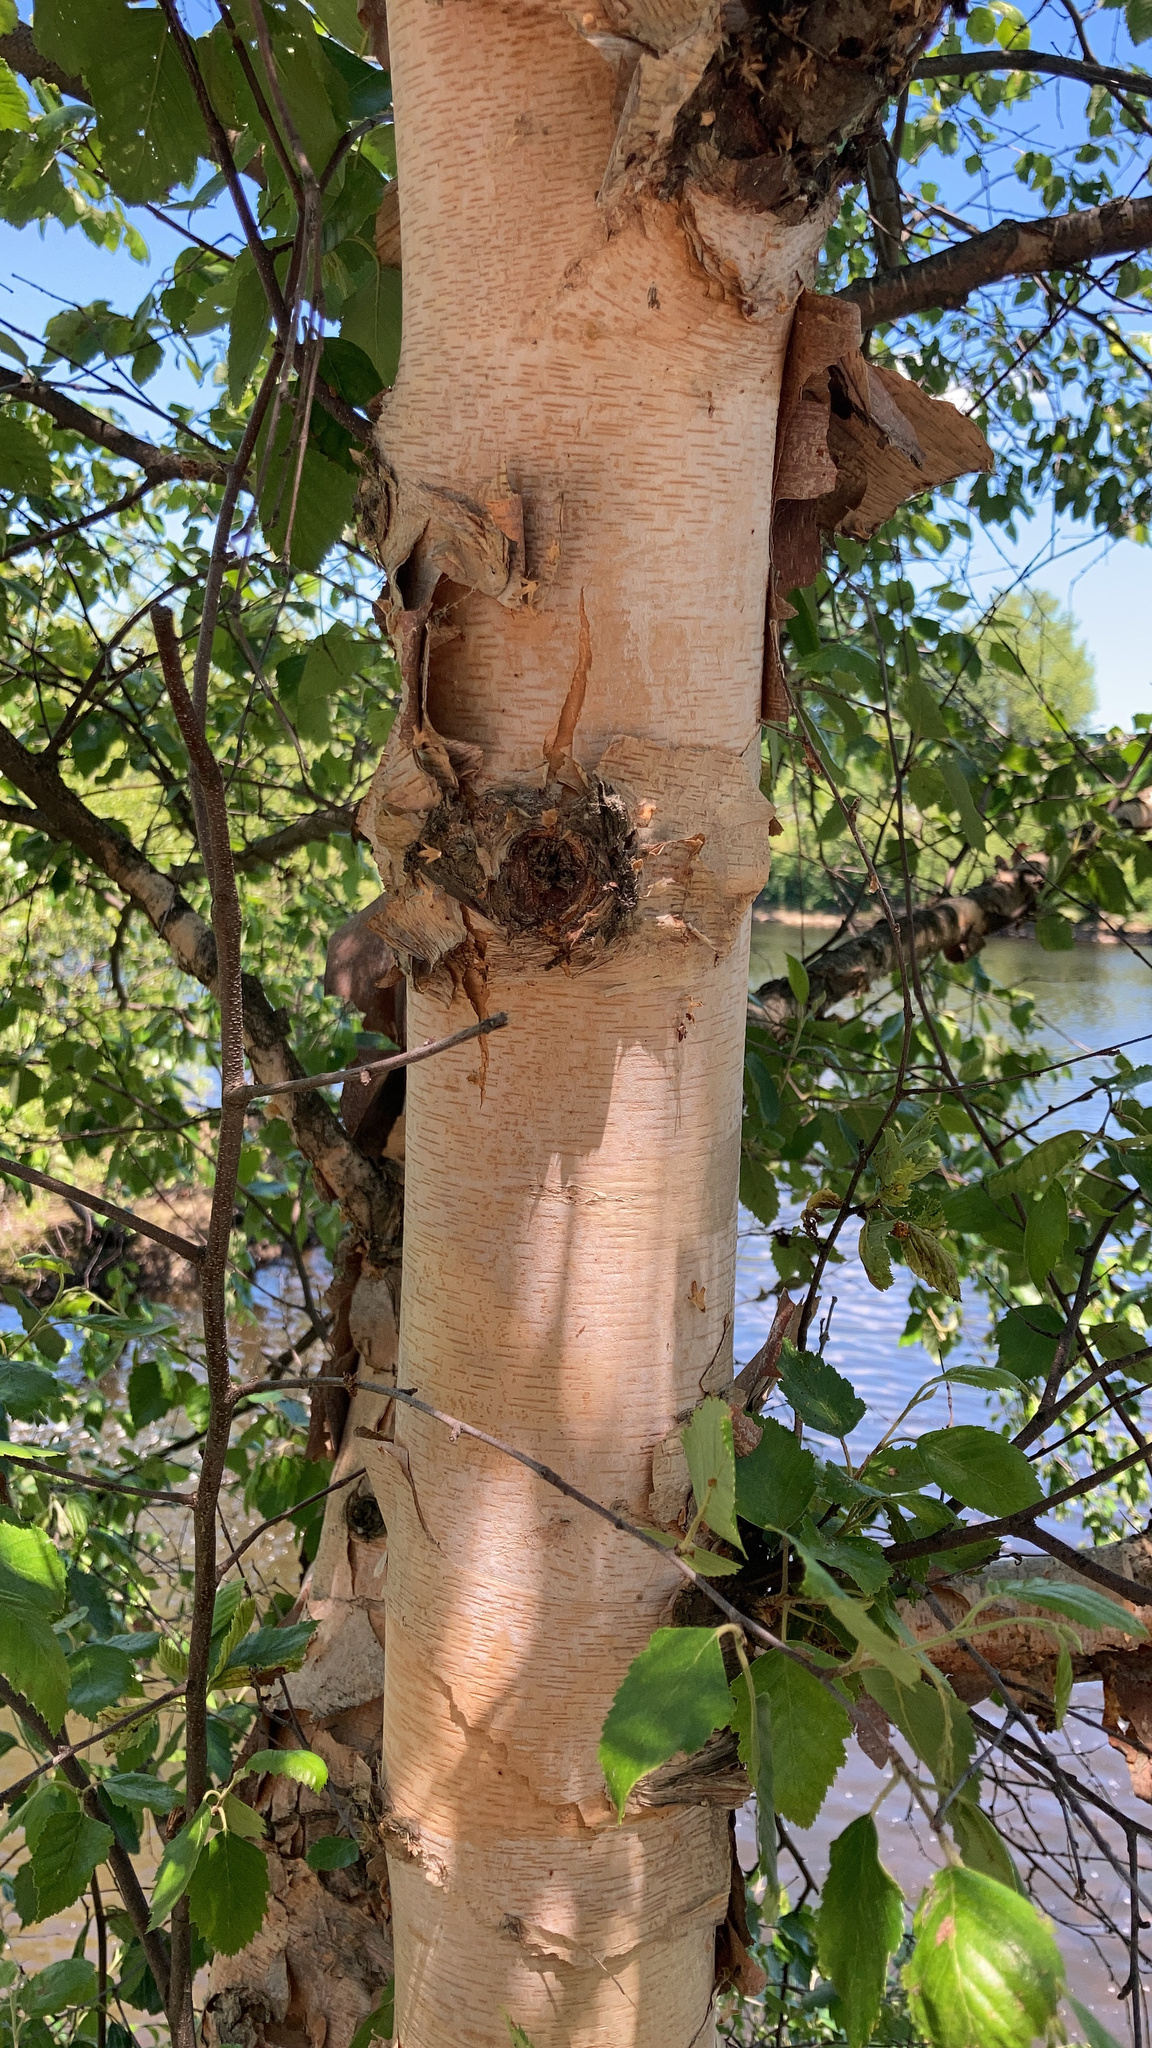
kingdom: Plantae
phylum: Tracheophyta
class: Magnoliopsida
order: Fagales
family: Betulaceae
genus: Betula
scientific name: Betula nigra
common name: Black birch
